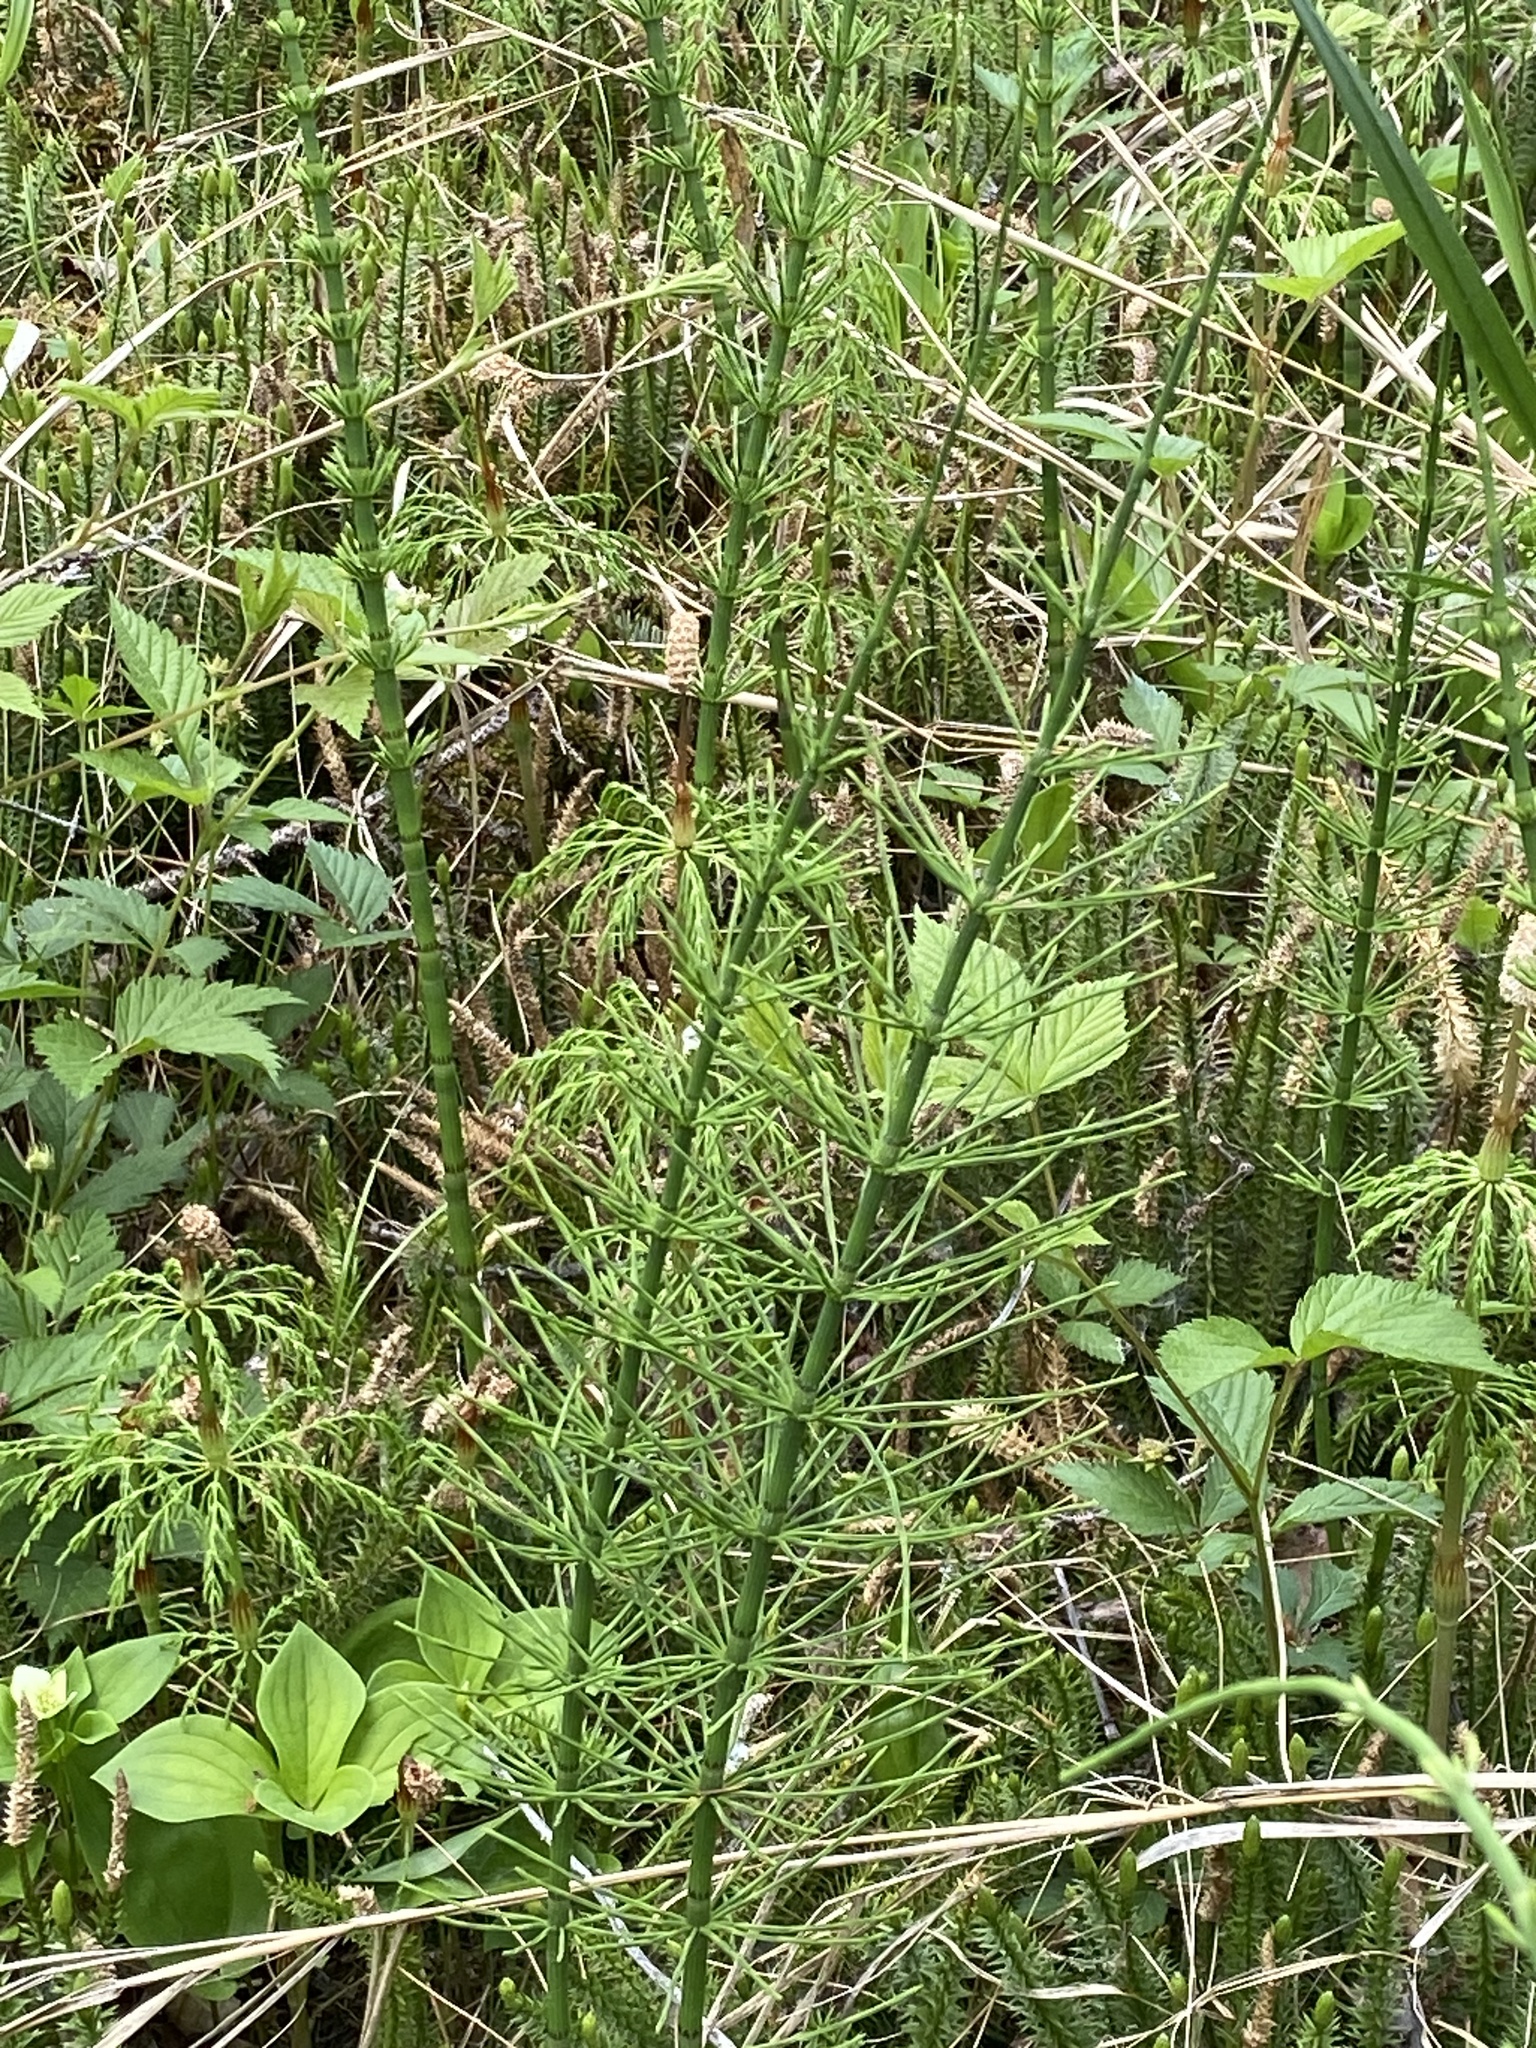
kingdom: Plantae
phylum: Tracheophyta
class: Polypodiopsida
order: Equisetales
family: Equisetaceae
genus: Equisetum
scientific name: Equisetum fluviatile
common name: Water horsetail
